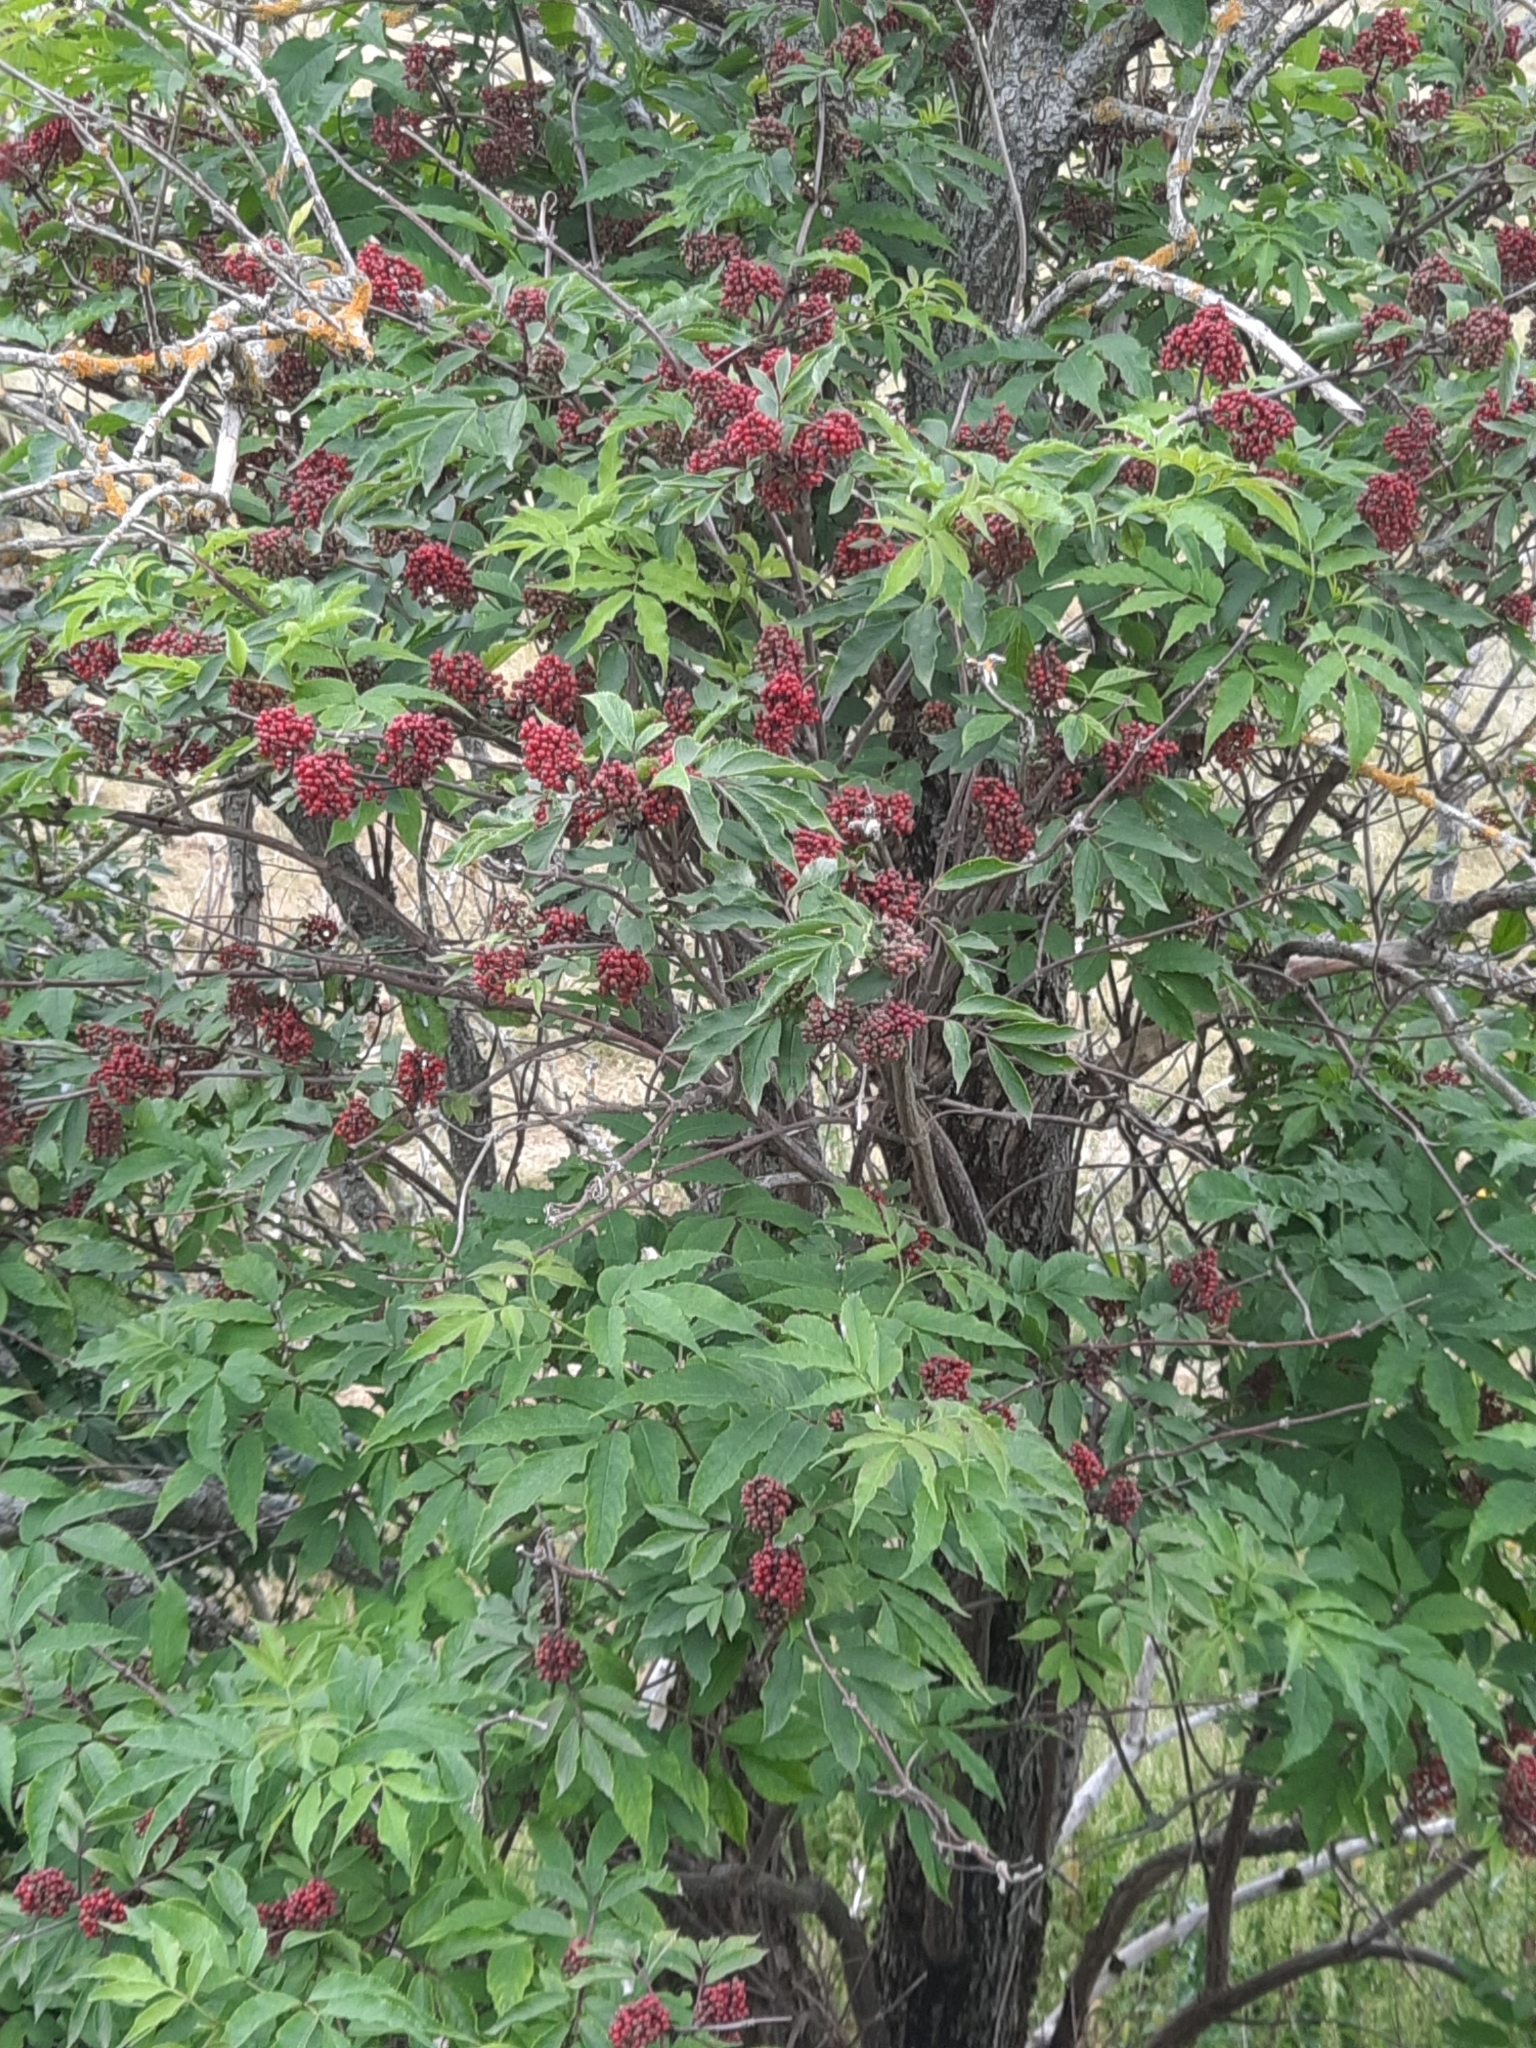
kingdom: Plantae
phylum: Tracheophyta
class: Magnoliopsida
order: Dipsacales
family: Viburnaceae
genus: Sambucus
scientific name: Sambucus racemosa
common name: Red-berried elder
